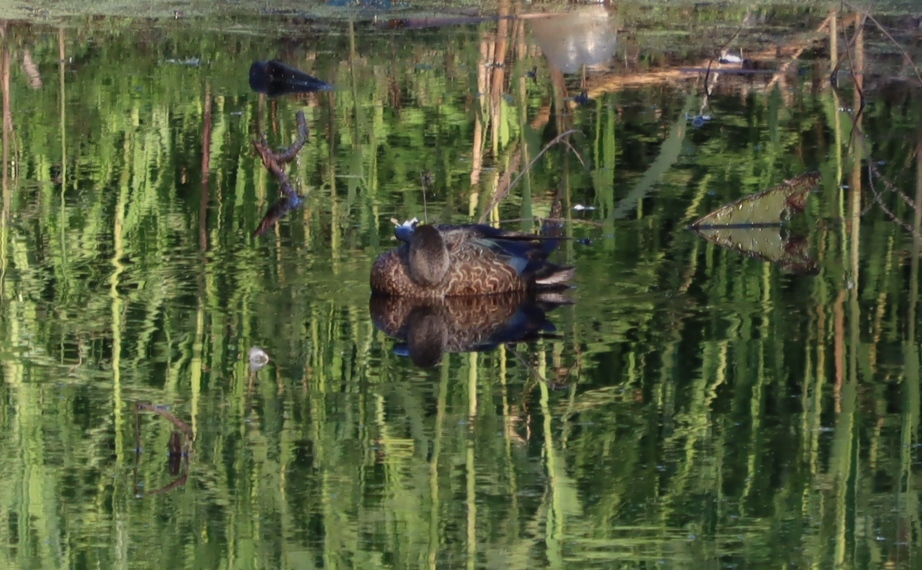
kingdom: Animalia
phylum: Chordata
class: Aves
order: Anseriformes
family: Anatidae
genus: Spatula
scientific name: Spatula smithii
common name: Cape shoveler
